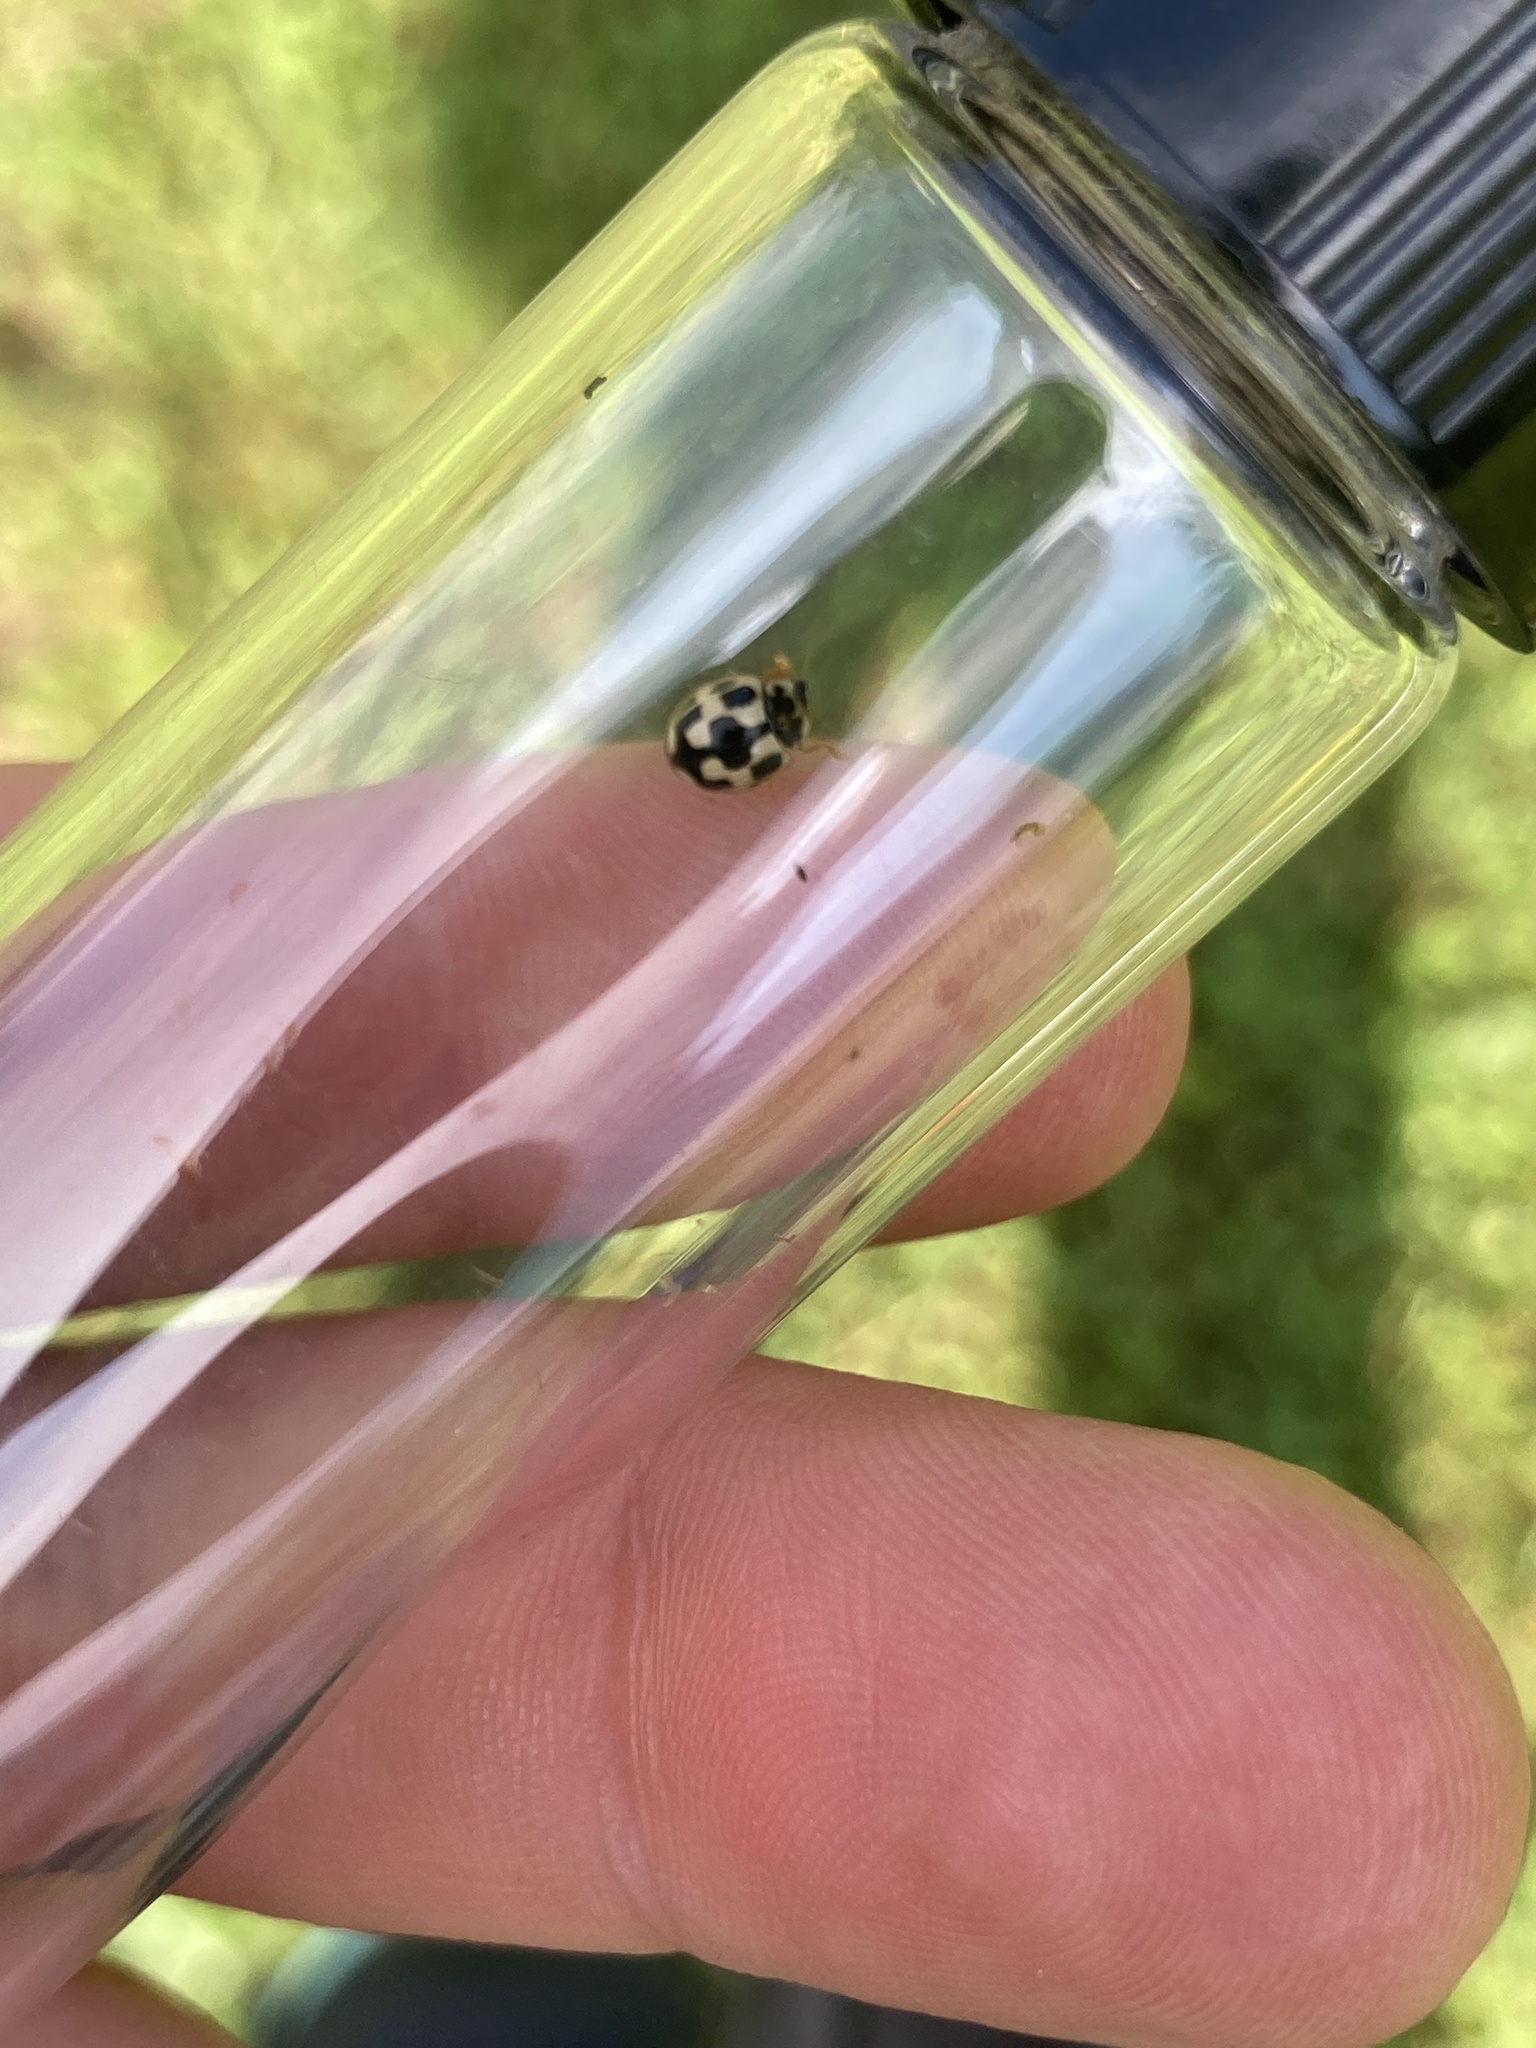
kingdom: Animalia
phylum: Arthropoda
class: Insecta
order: Coleoptera
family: Coccinellidae
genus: Propylaea
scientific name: Propylaea quatuordecimpunctata
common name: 14-spotted ladybird beetle
